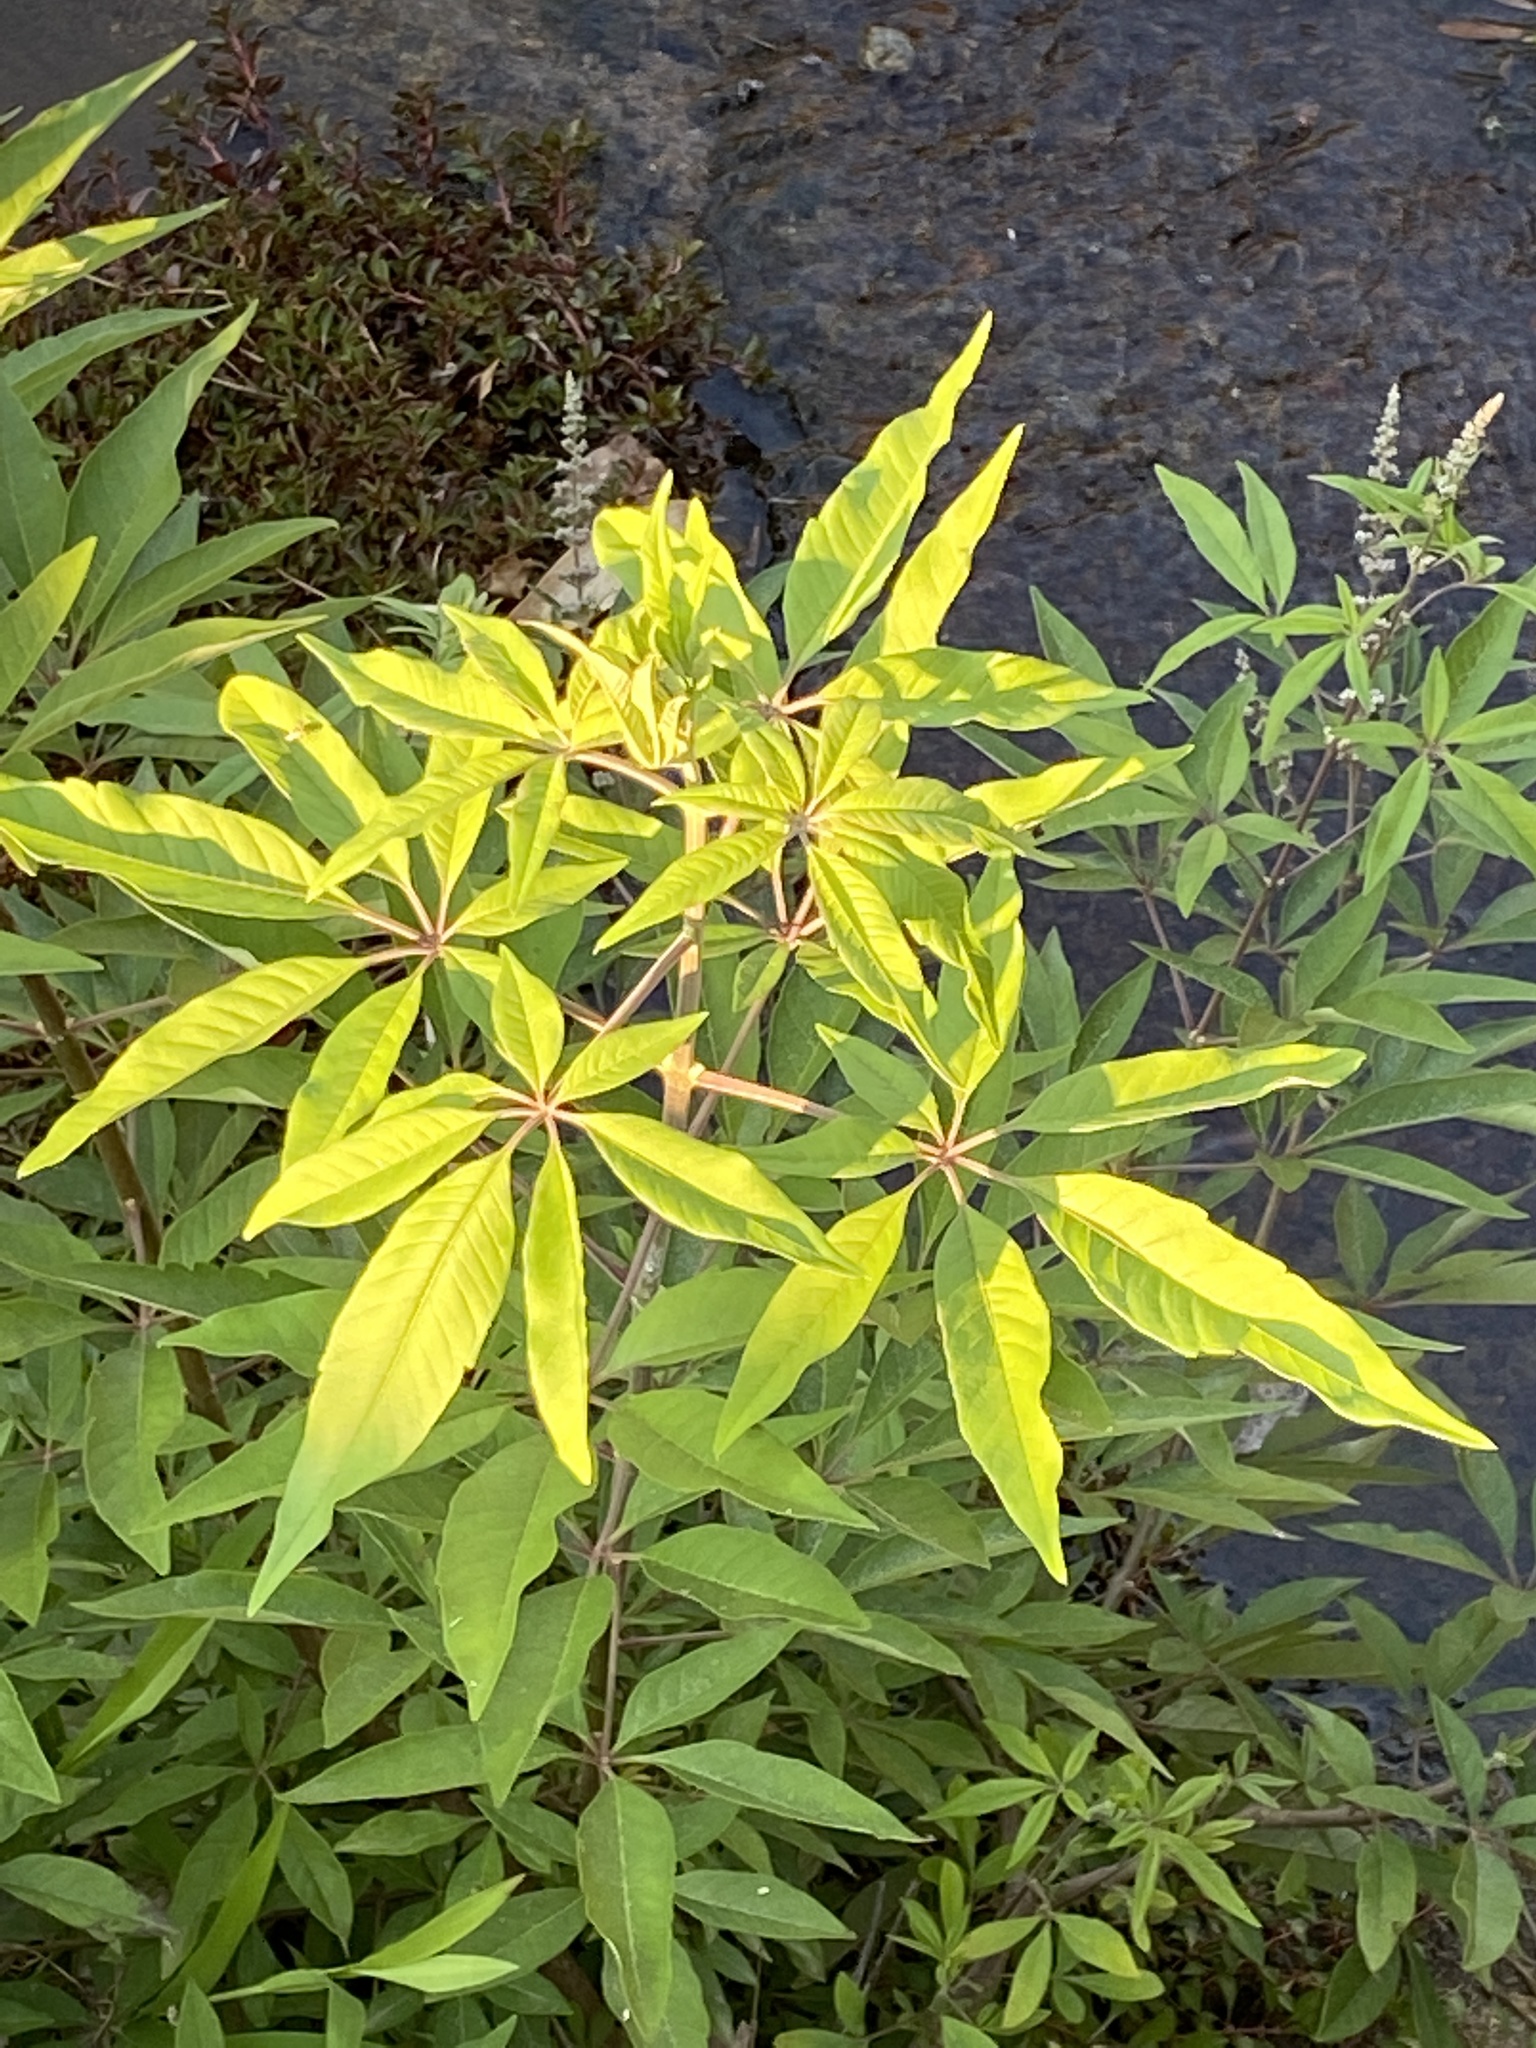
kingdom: Plantae
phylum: Tracheophyta
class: Magnoliopsida
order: Lamiales
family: Lamiaceae
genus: Vitex
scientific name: Vitex agnus-castus
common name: Chasteberry
